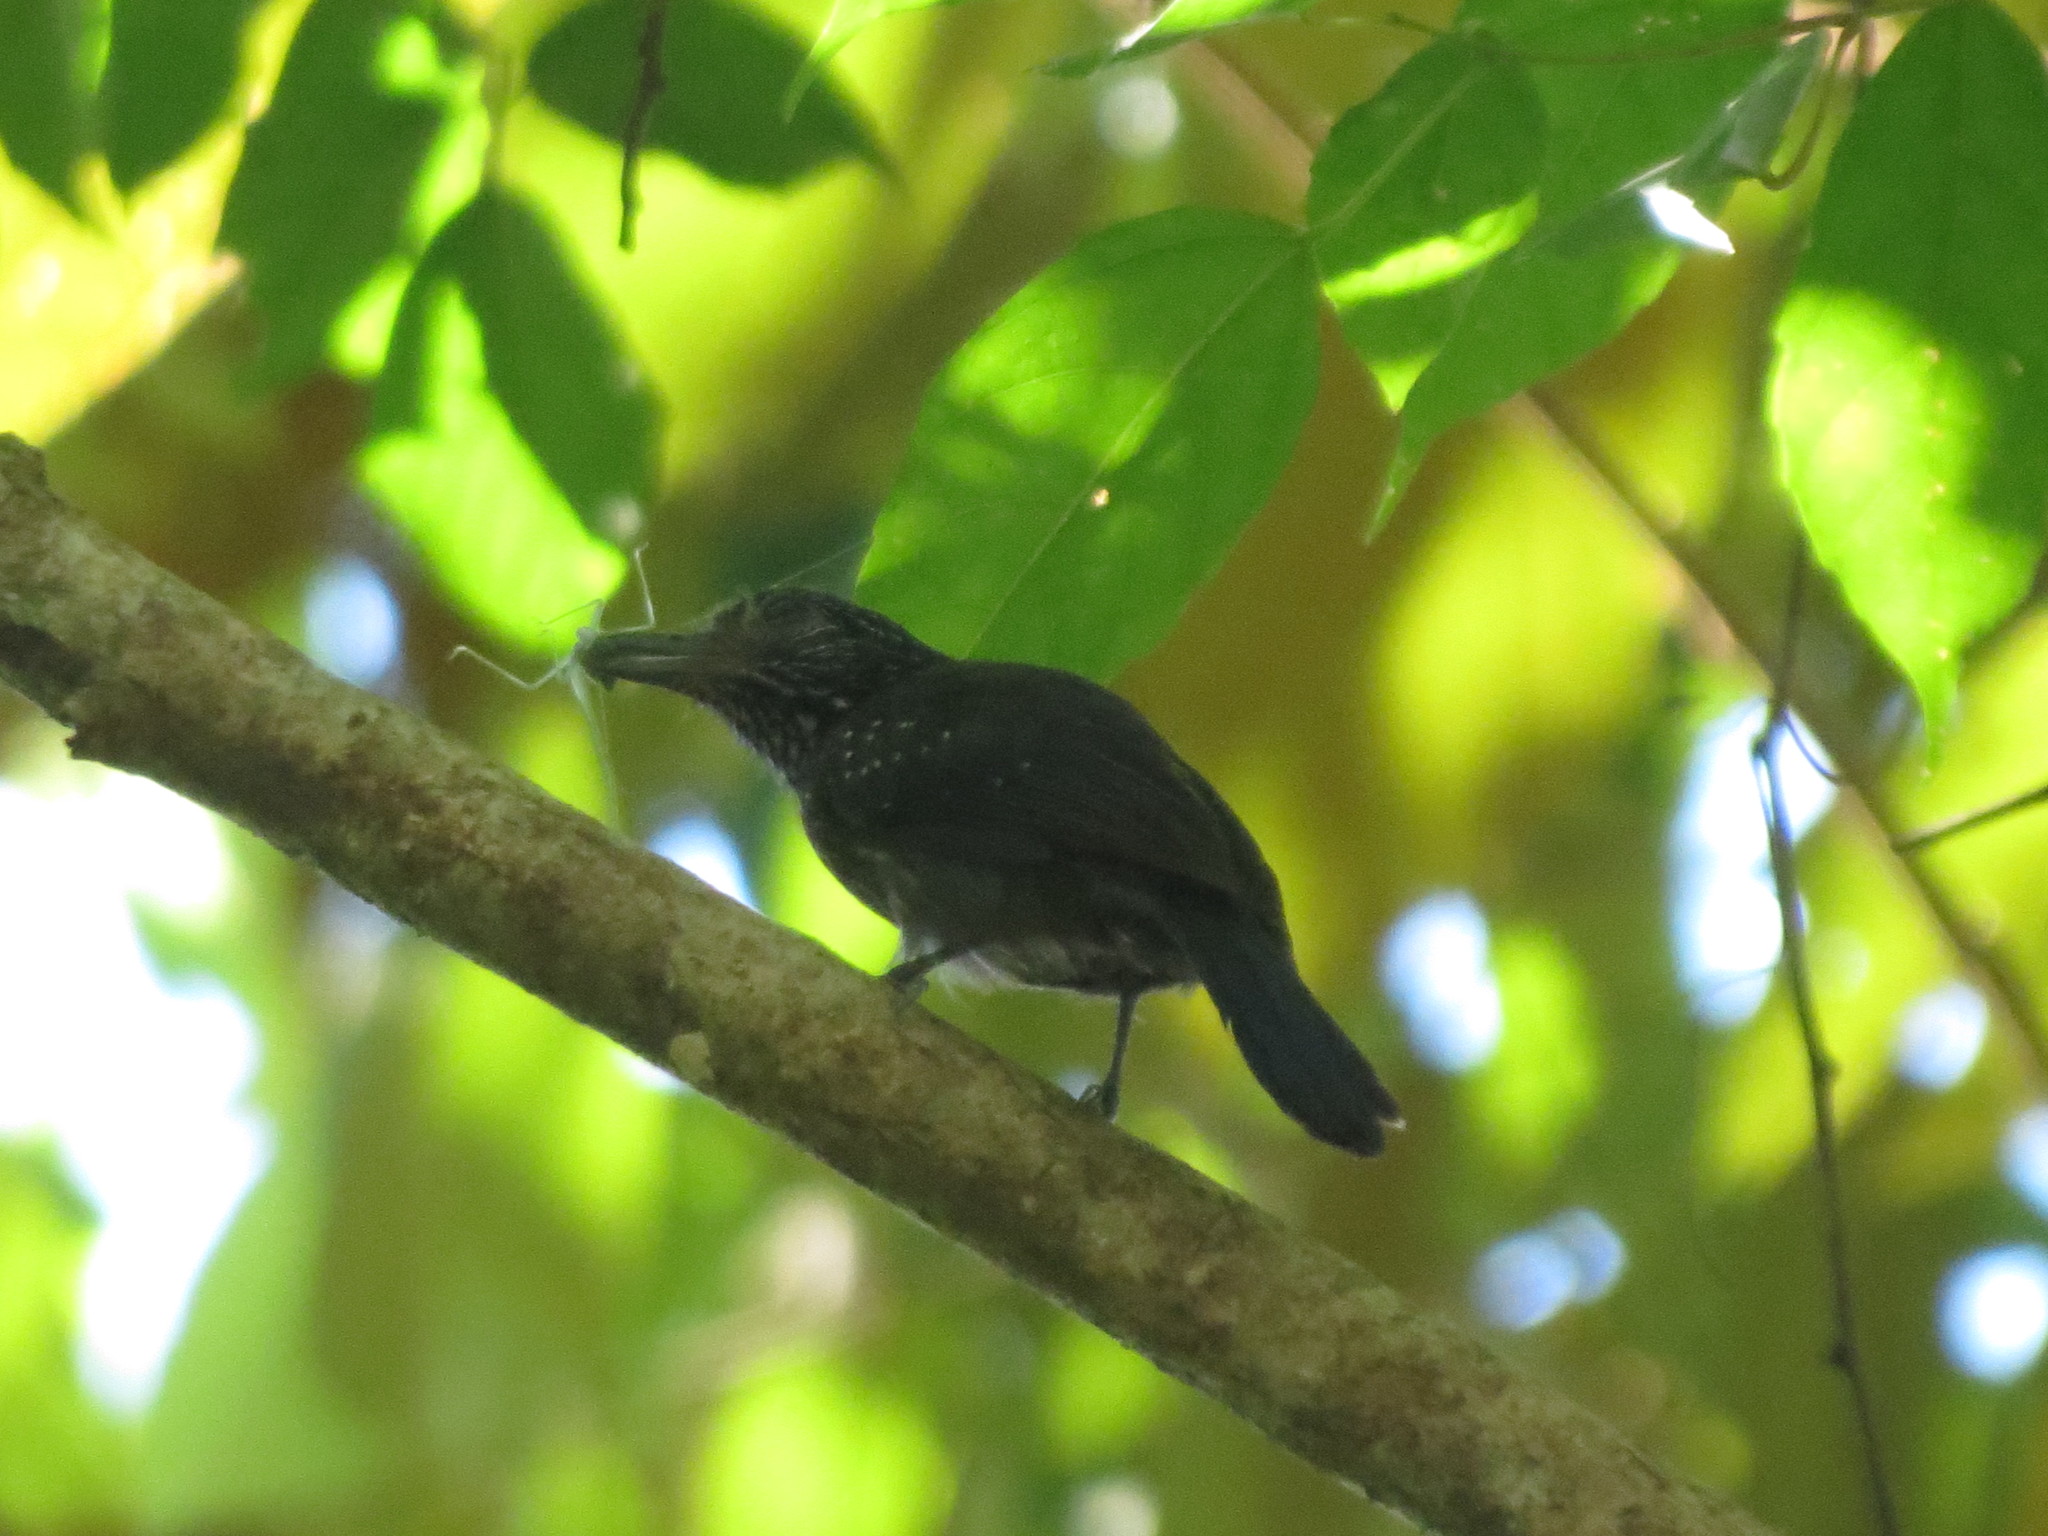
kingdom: Animalia
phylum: Chordata
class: Aves
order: Passeriformes
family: Thamnophilidae
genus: Thamnophilus
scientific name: Thamnophilus bridgesi
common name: Black-hooded antshrike
